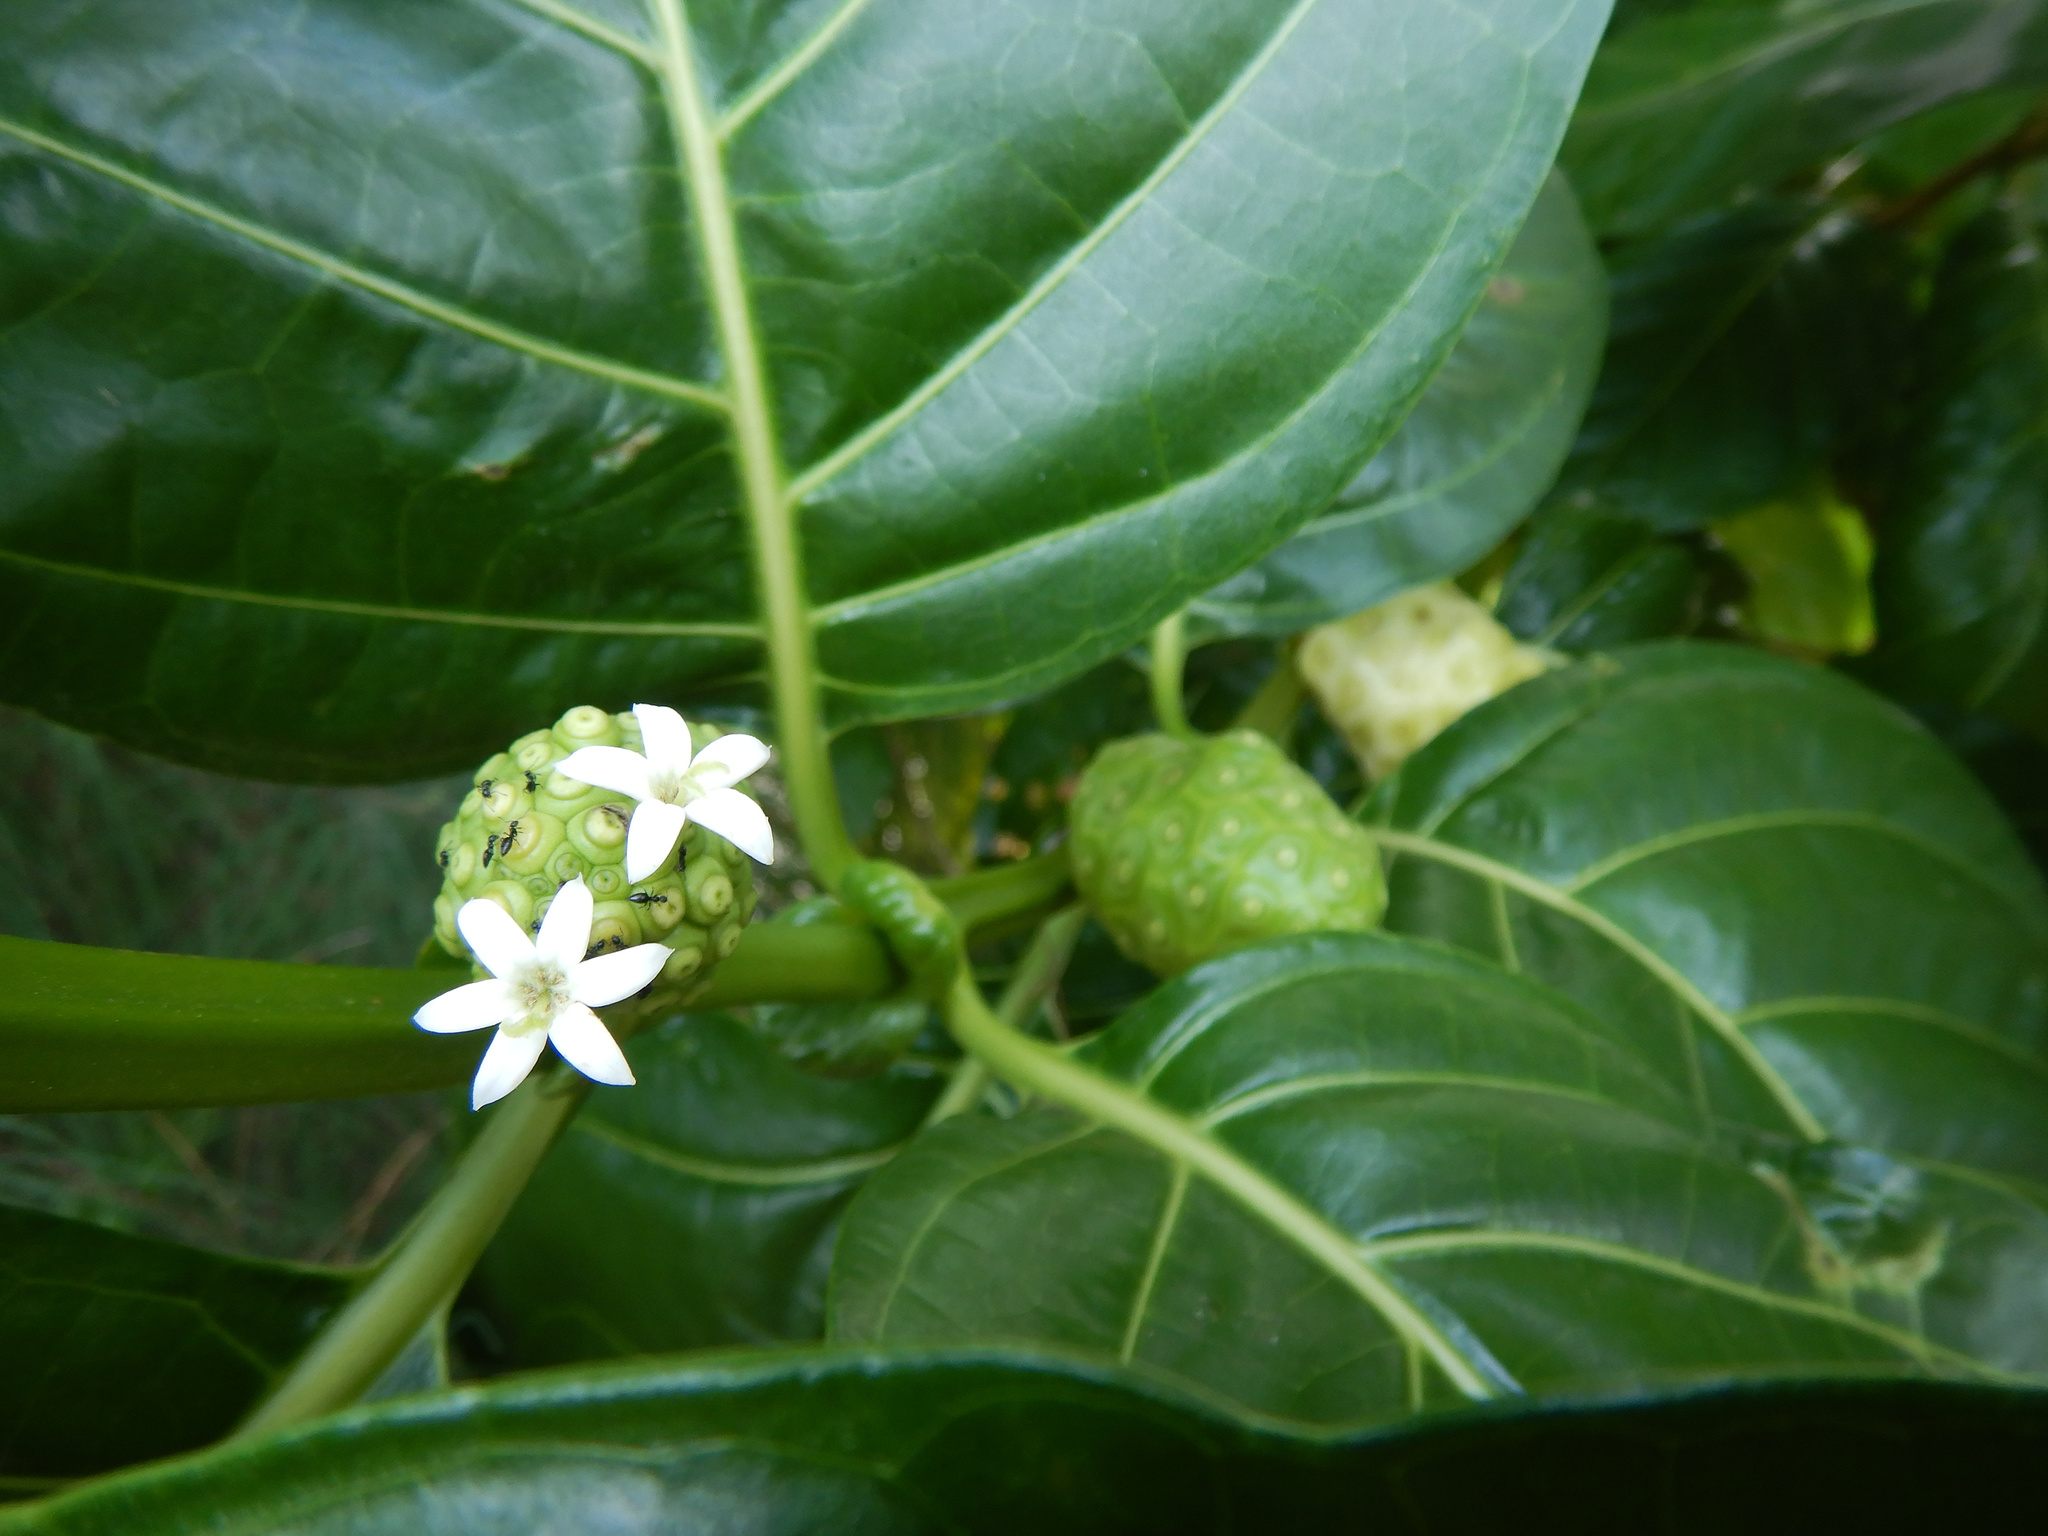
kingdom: Plantae
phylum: Tracheophyta
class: Magnoliopsida
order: Gentianales
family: Rubiaceae
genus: Morinda
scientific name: Morinda citrifolia
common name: Indian-mulberry
